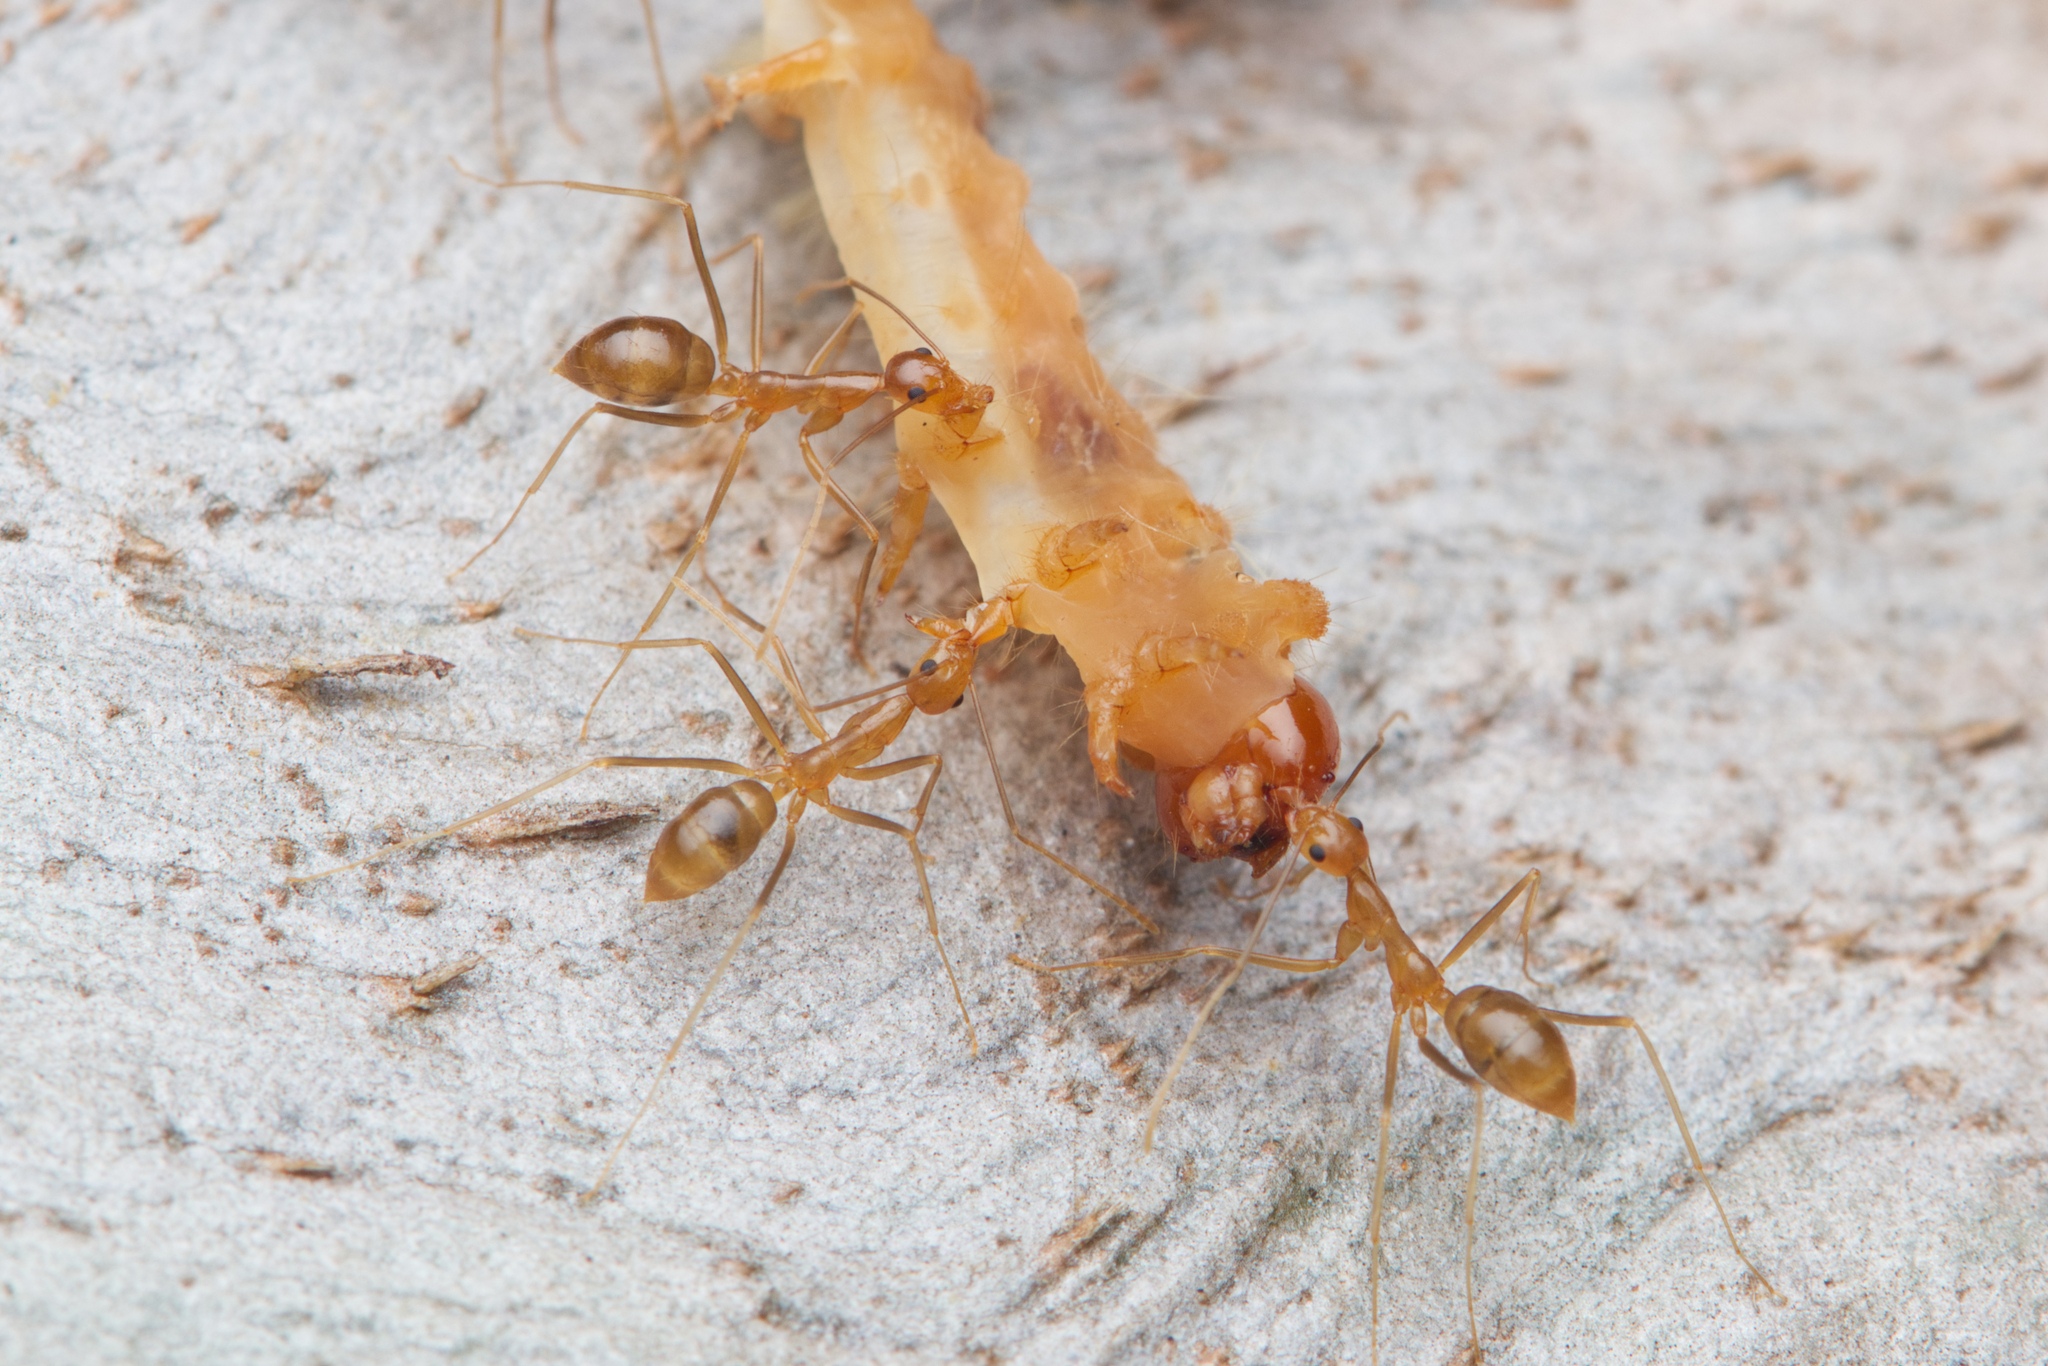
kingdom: Animalia
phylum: Arthropoda
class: Insecta
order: Hymenoptera
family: Formicidae
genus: Anoplolepis
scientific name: Anoplolepis gracilipes
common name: Ant
